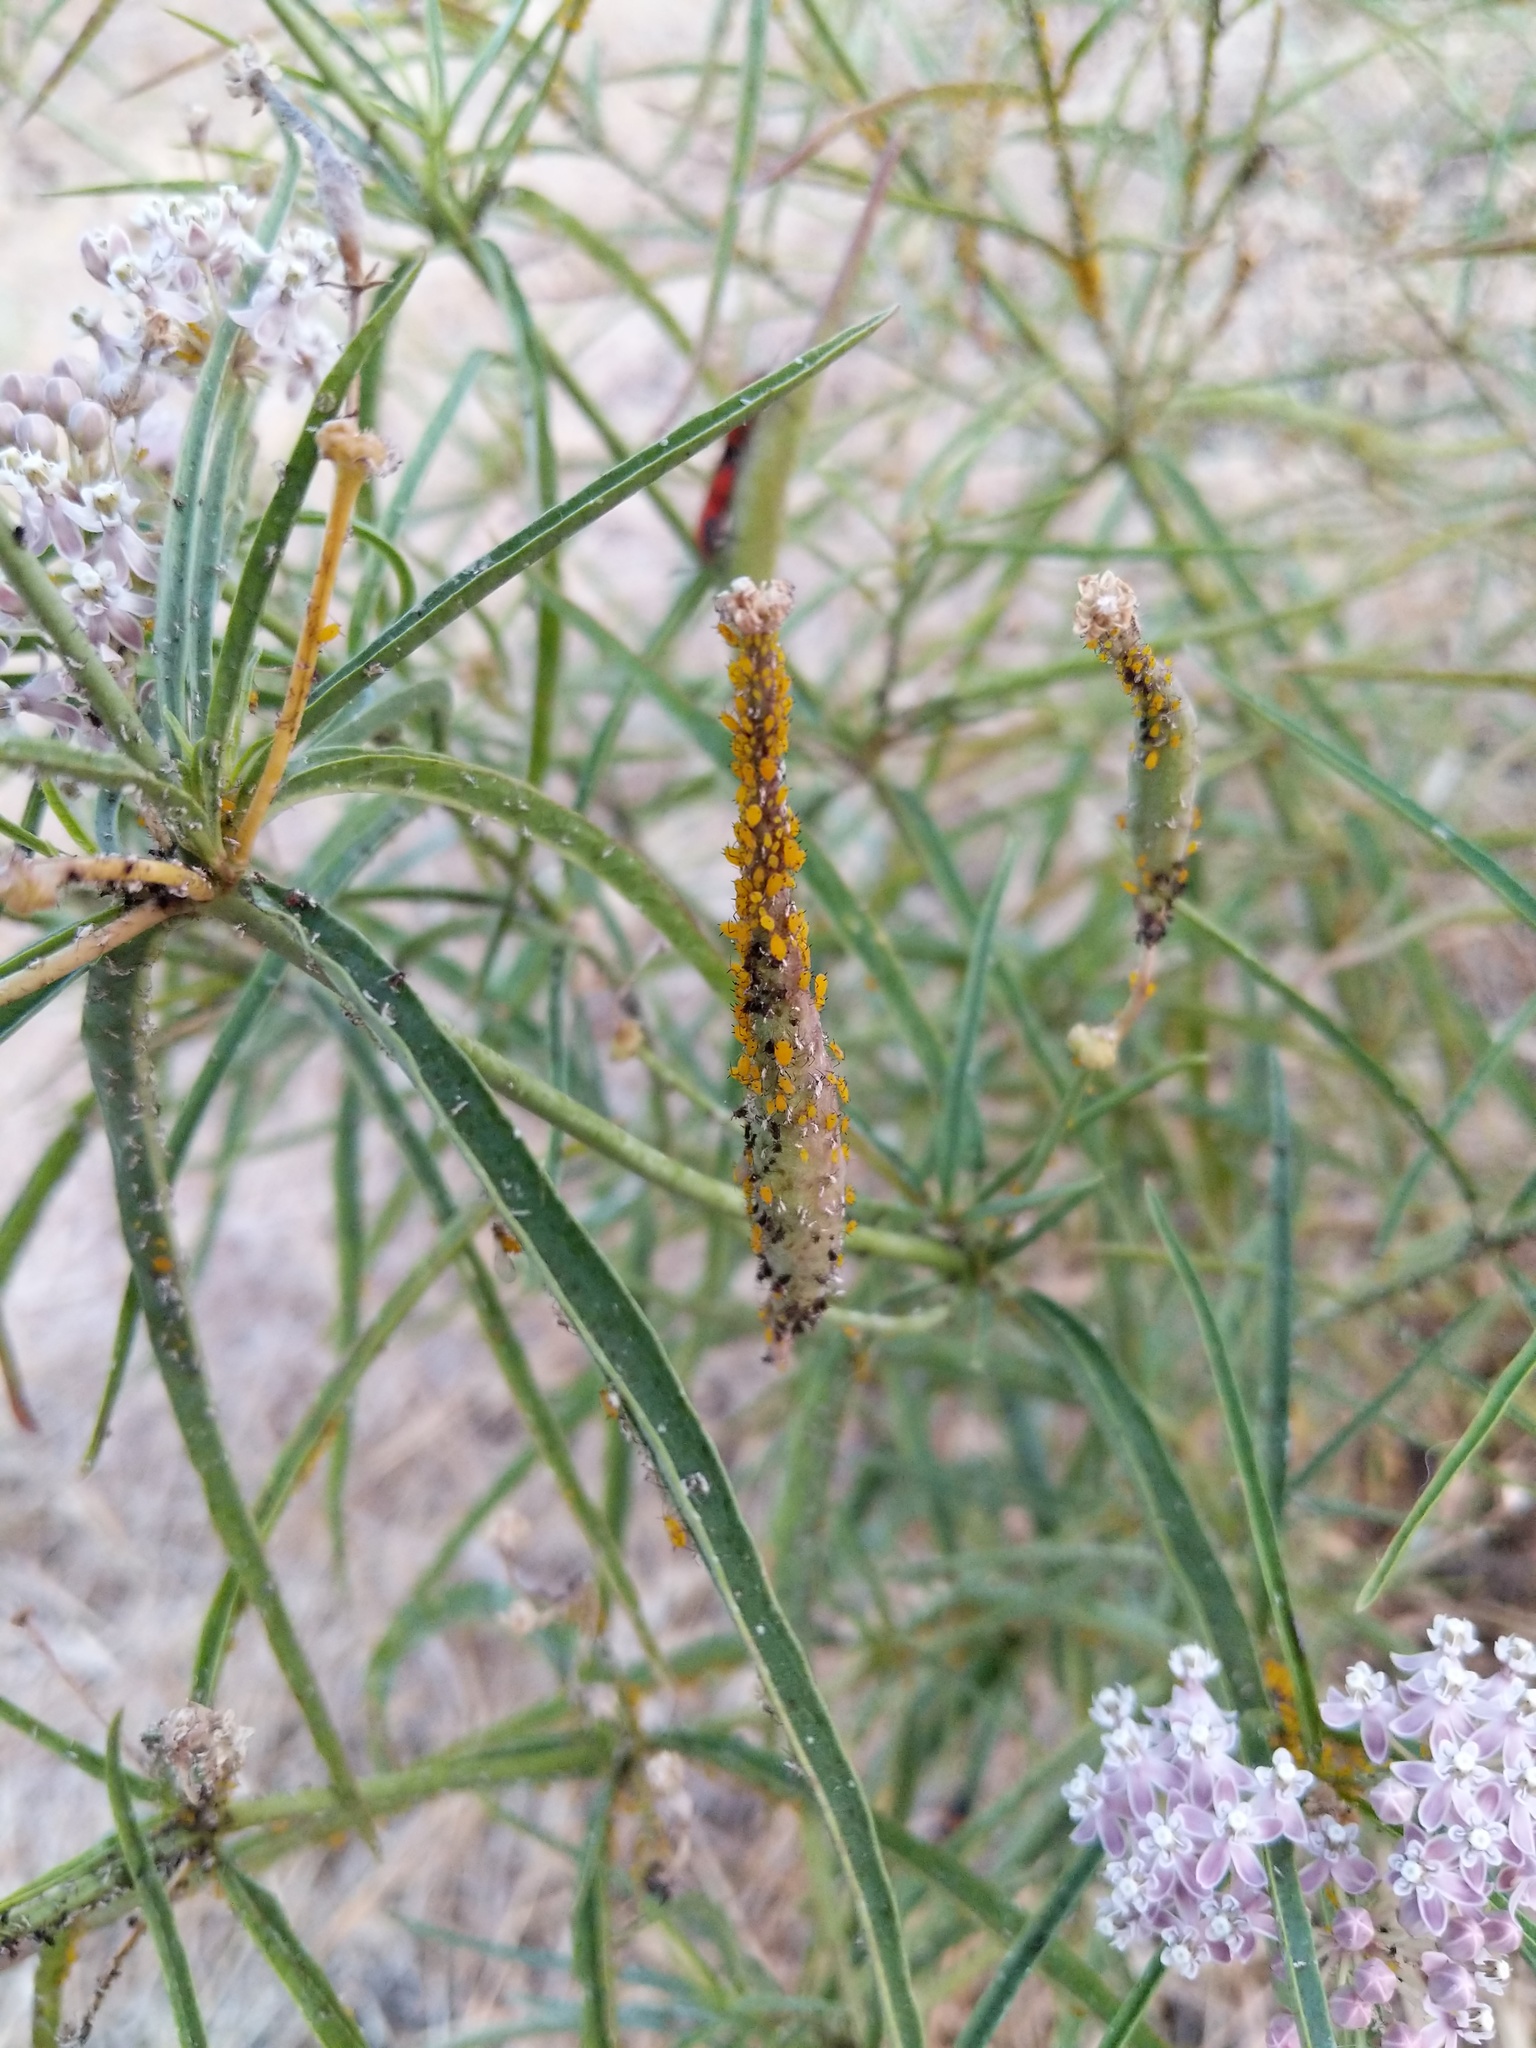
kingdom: Animalia
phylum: Arthropoda
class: Insecta
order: Hemiptera
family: Aphididae
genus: Aphis
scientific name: Aphis nerii
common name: Oleander aphid
